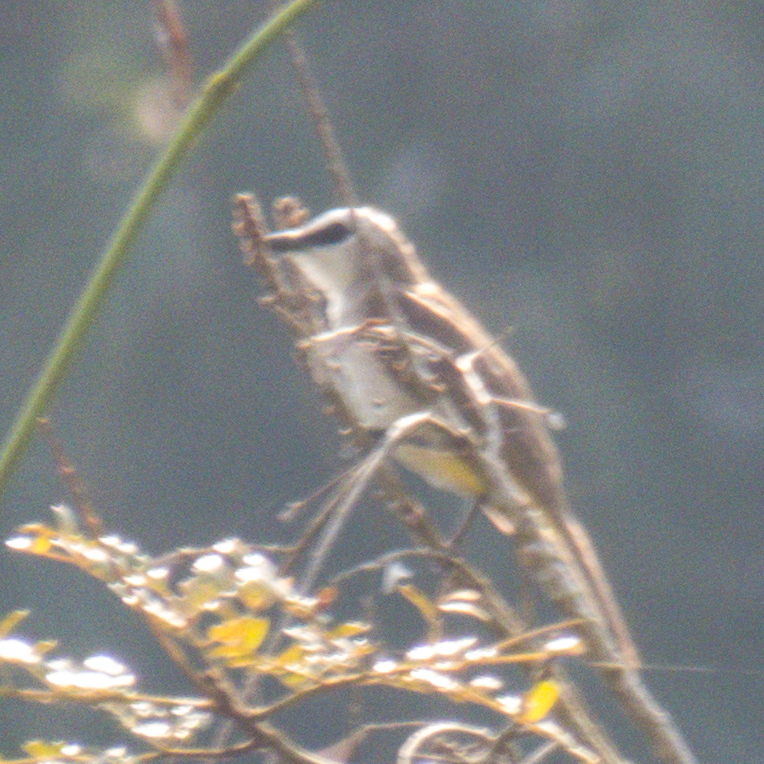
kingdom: Animalia
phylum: Chordata
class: Aves
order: Passeriformes
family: Pycnonotidae
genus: Pycnonotus
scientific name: Pycnonotus goiavier
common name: Yellow-vented bulbul
